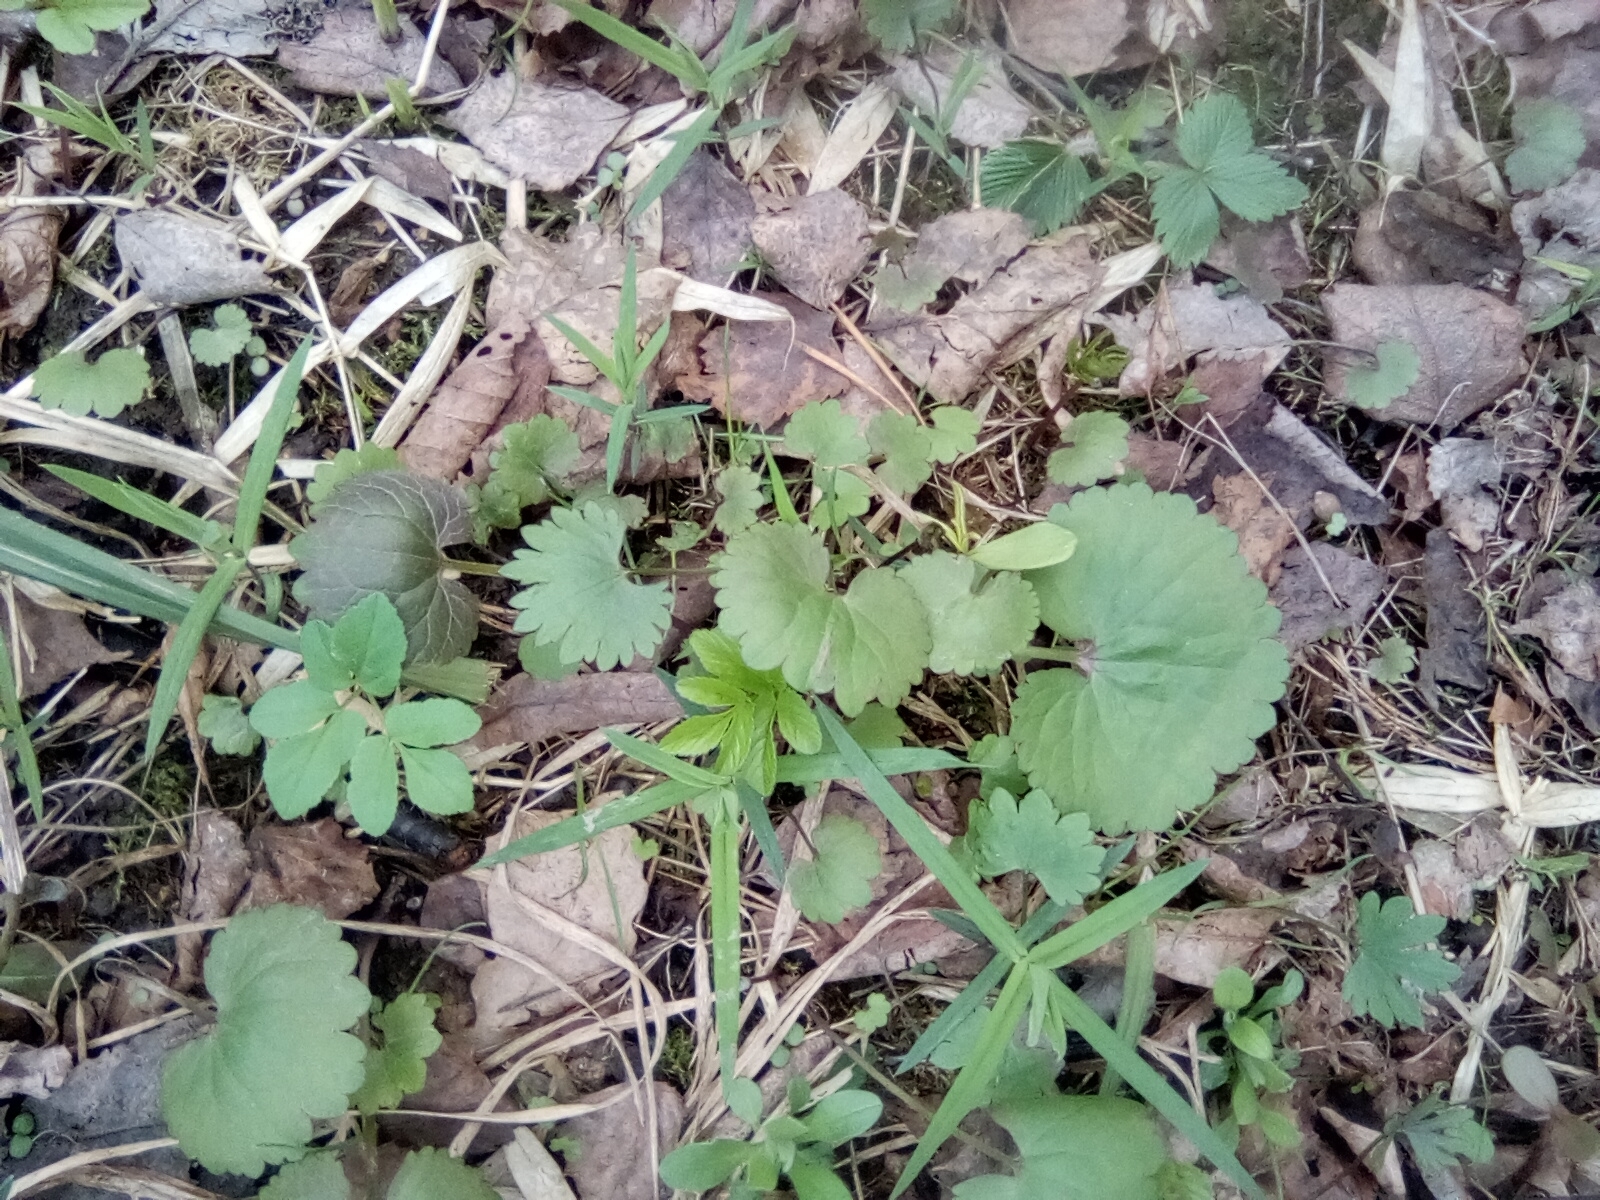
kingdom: Plantae
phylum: Tracheophyta
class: Magnoliopsida
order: Ranunculales
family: Ranunculaceae
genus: Ranunculus
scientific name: Ranunculus cassubicus
